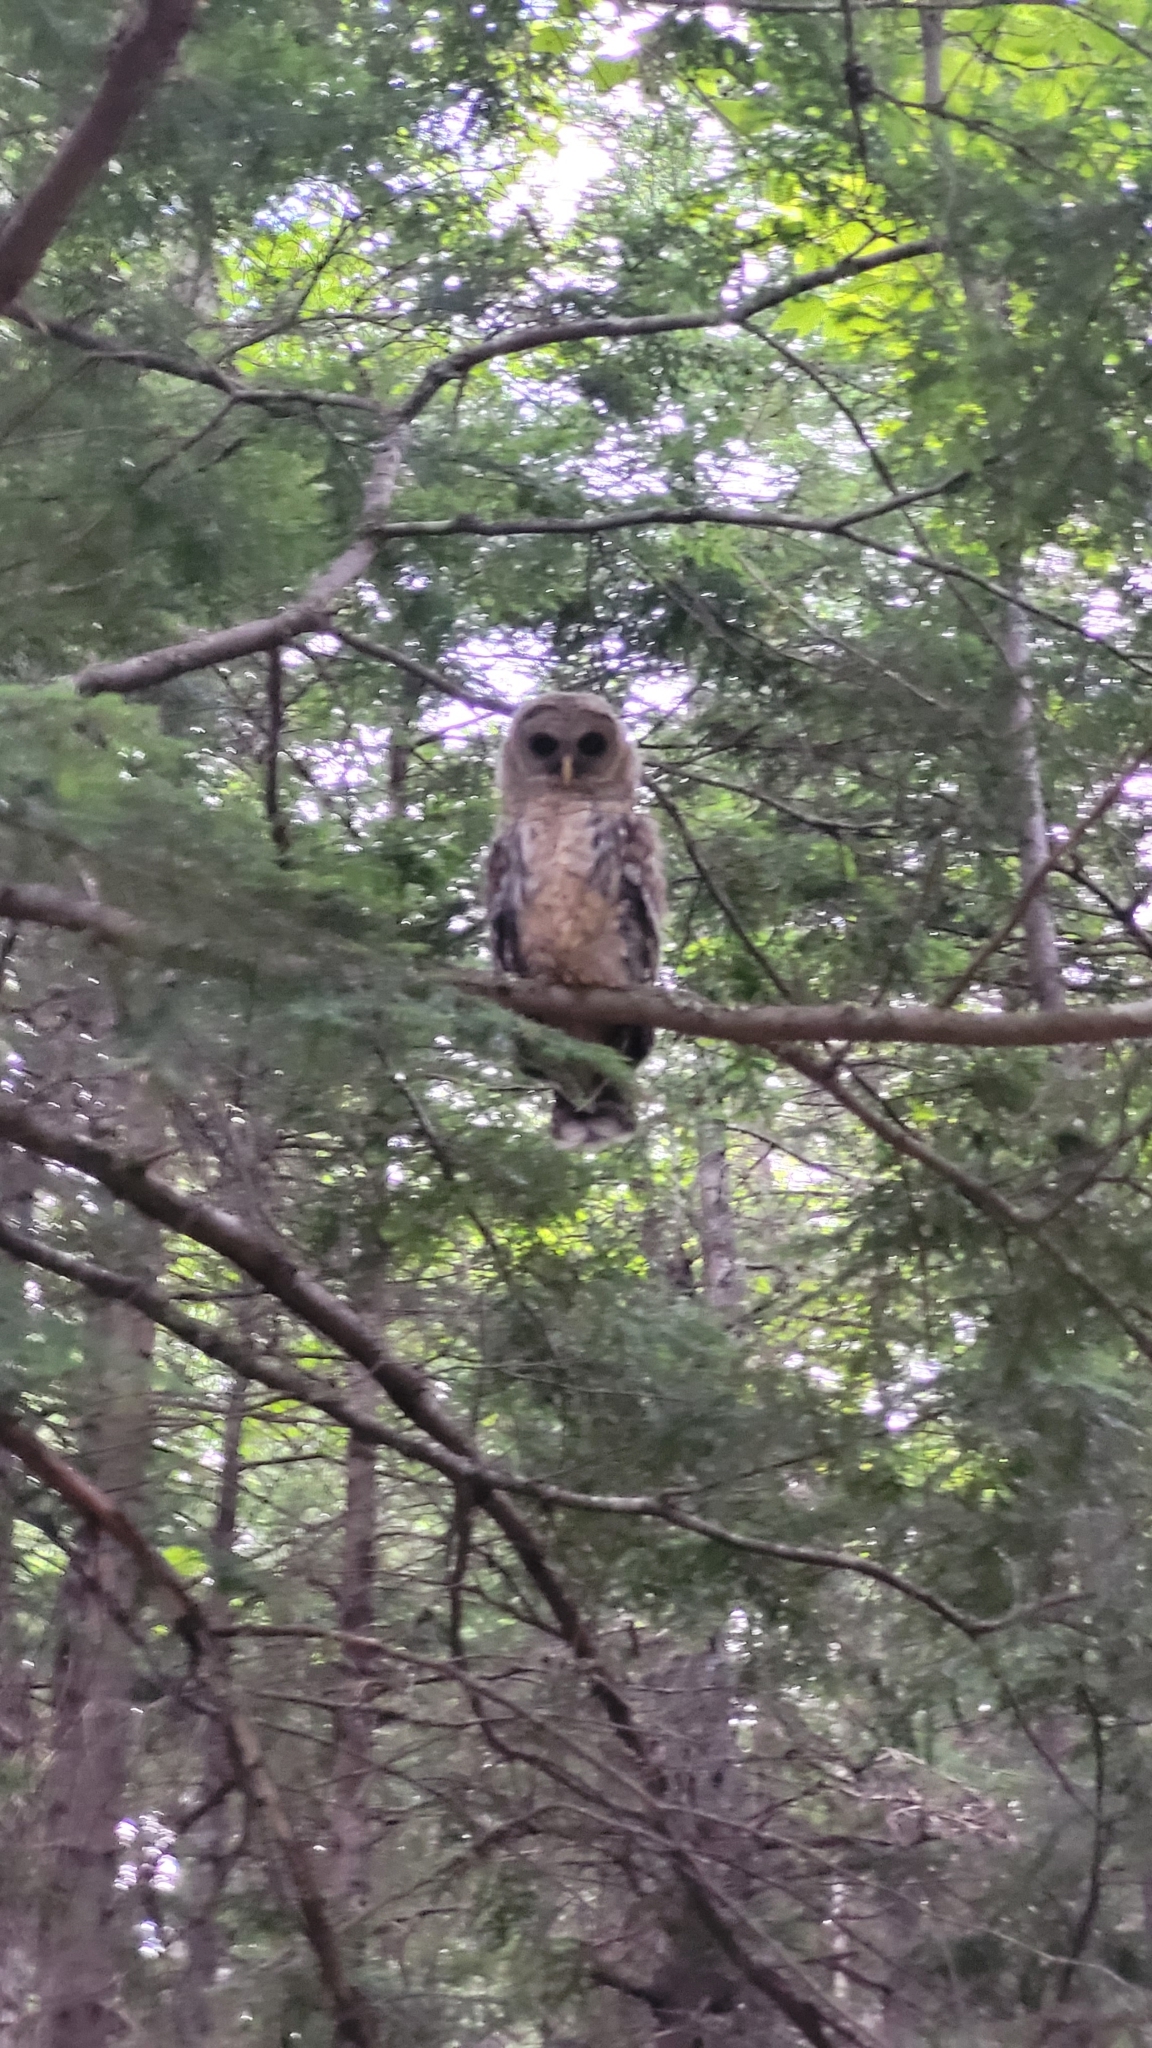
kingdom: Animalia
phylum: Chordata
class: Aves
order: Strigiformes
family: Strigidae
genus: Strix
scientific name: Strix varia
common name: Barred owl
